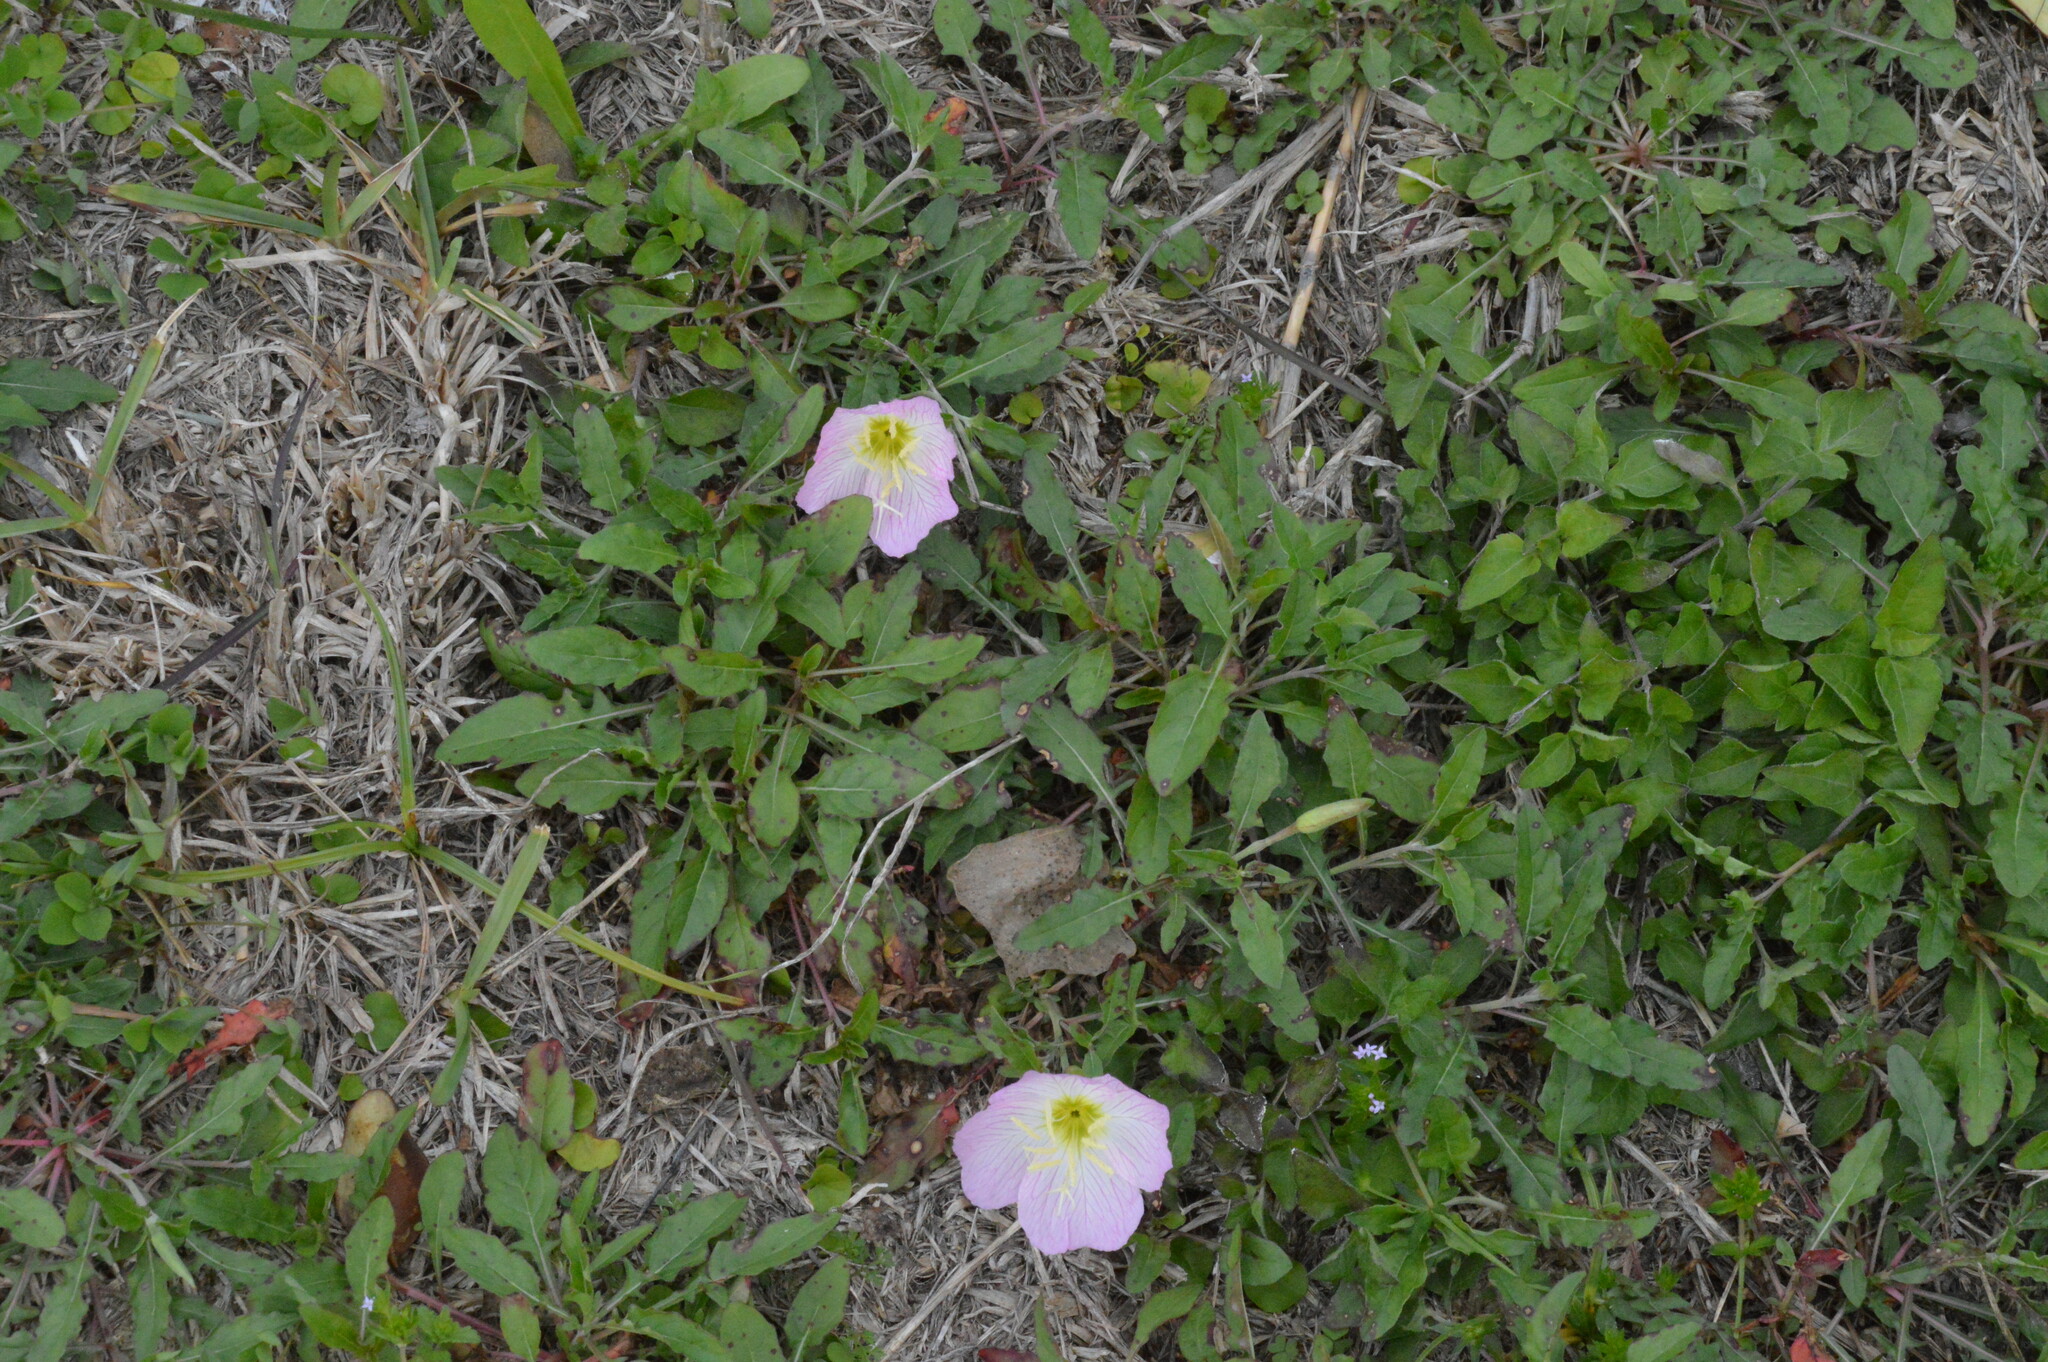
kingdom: Plantae
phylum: Tracheophyta
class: Magnoliopsida
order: Myrtales
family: Onagraceae
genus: Oenothera
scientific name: Oenothera speciosa
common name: White evening-primrose
